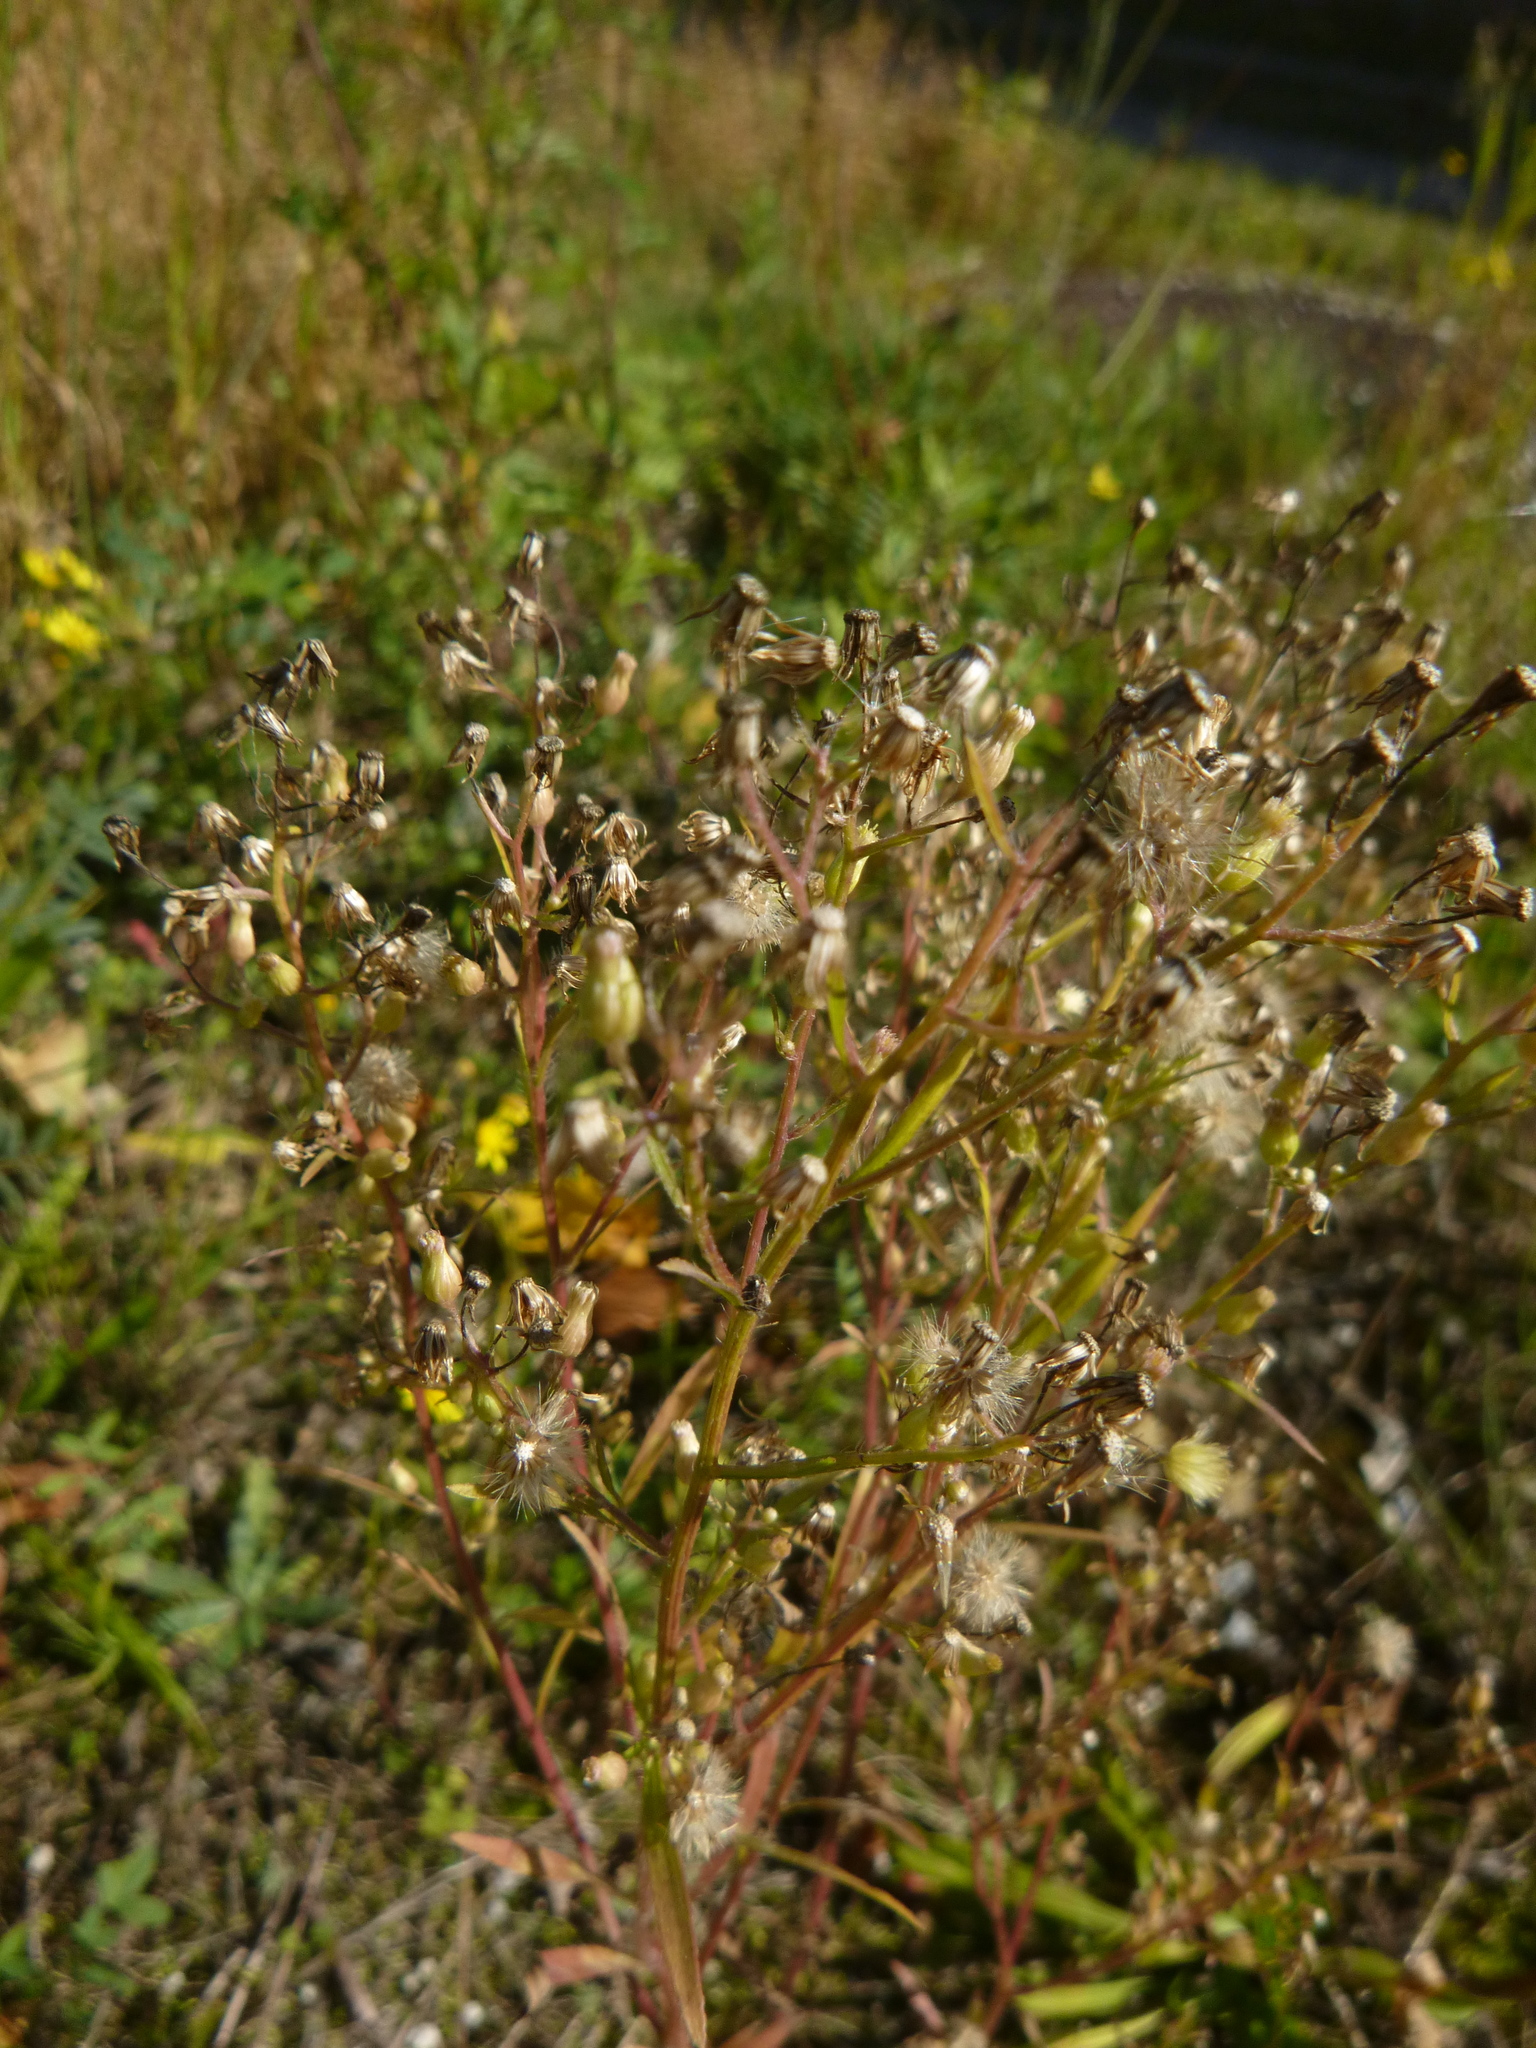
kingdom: Plantae
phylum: Tracheophyta
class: Magnoliopsida
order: Asterales
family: Asteraceae
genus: Erigeron
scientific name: Erigeron canadensis
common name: Canadian fleabane
